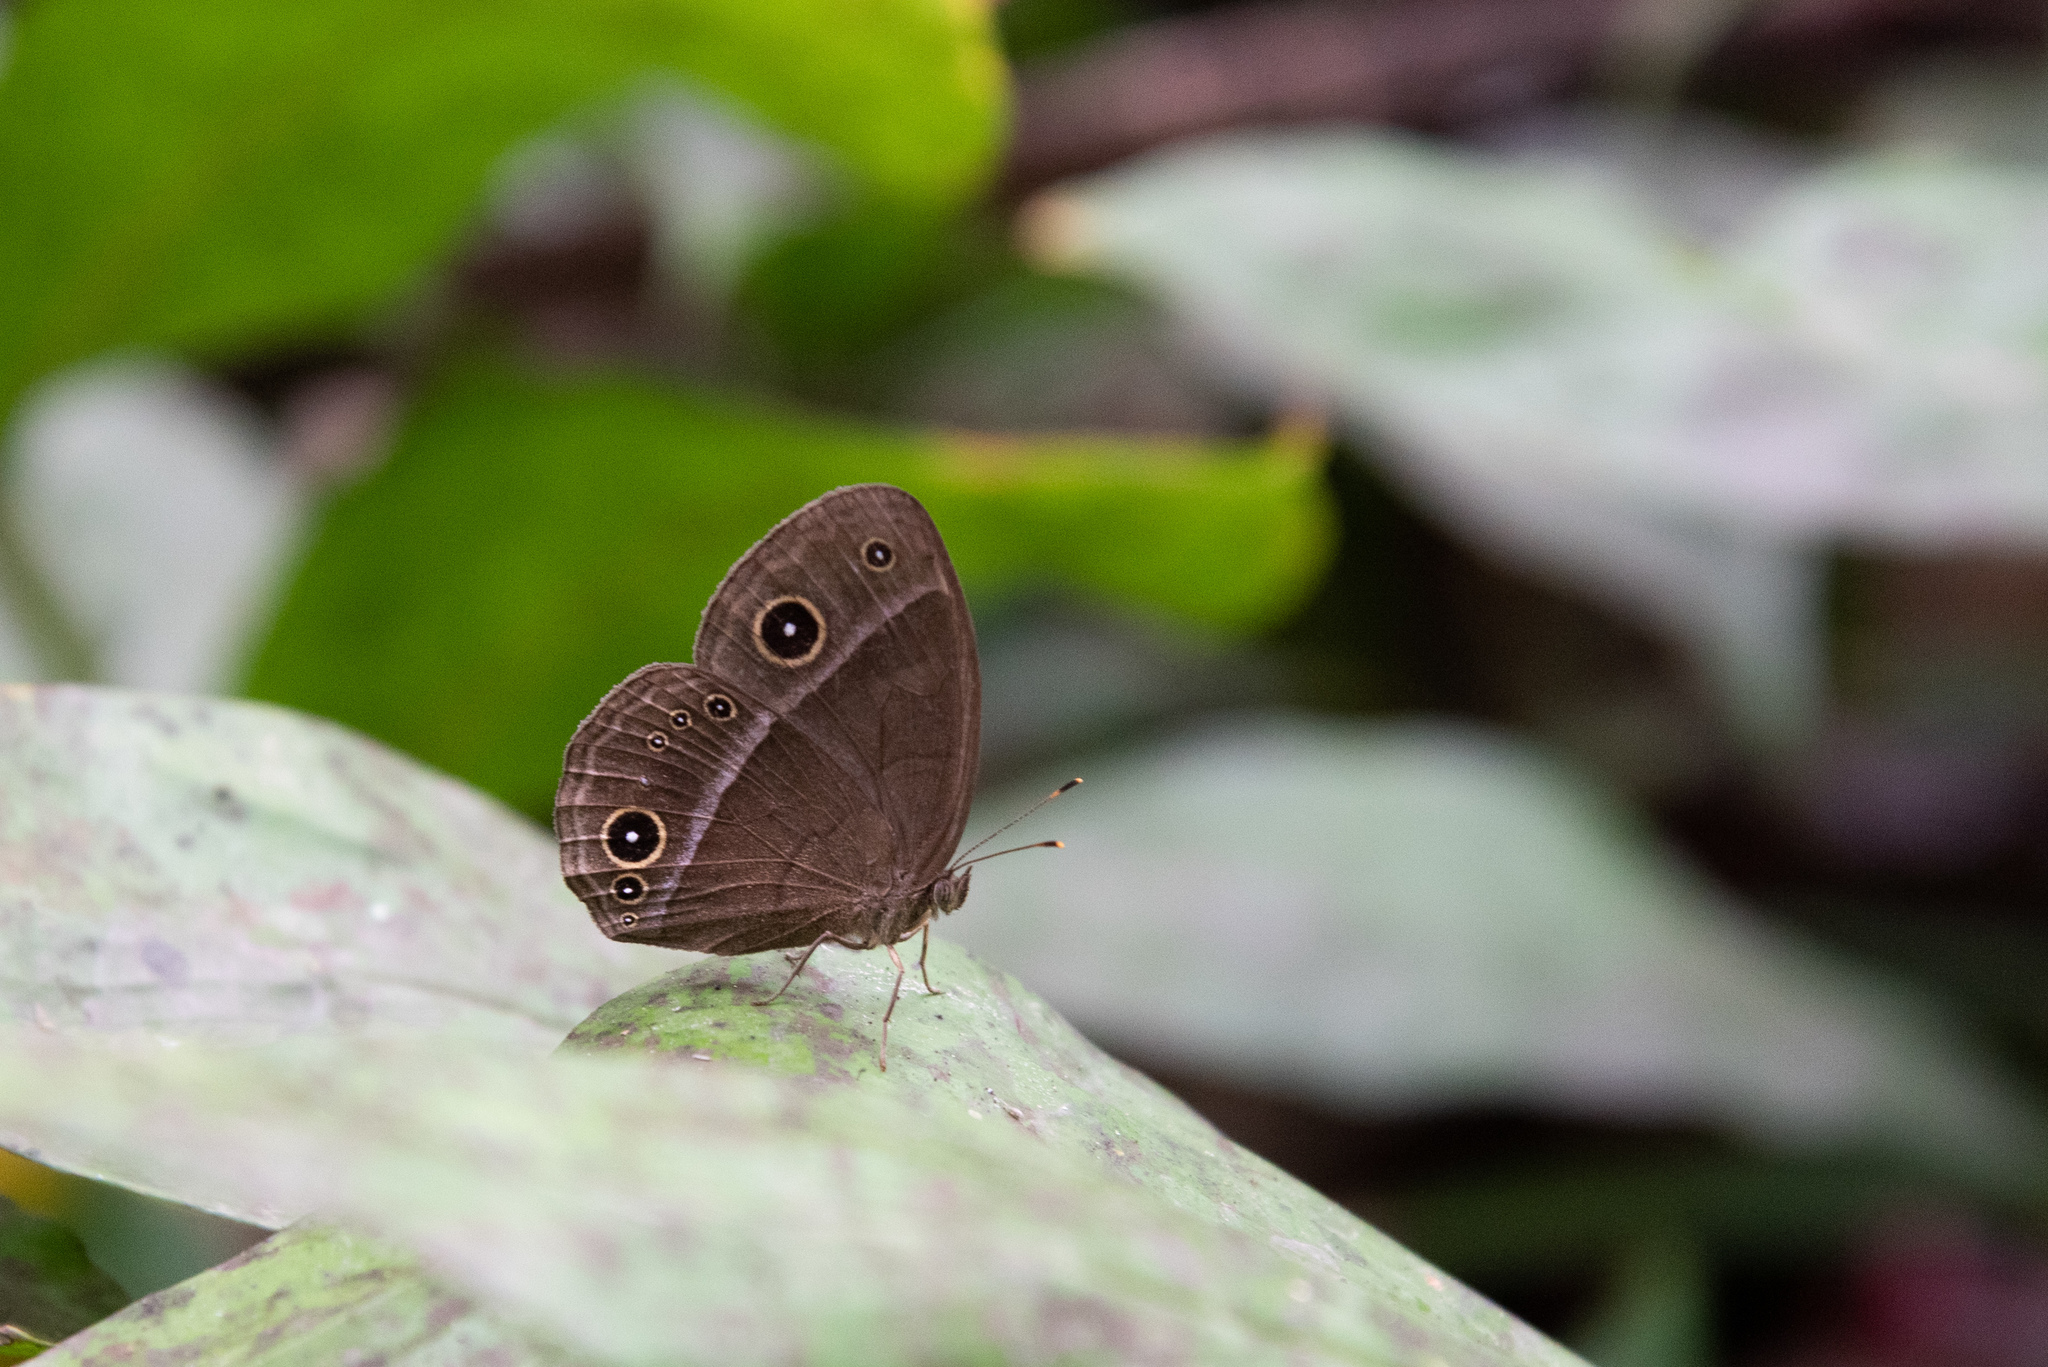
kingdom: Animalia
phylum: Arthropoda
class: Insecta
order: Lepidoptera
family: Nymphalidae
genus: Mycalesis
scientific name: Mycalesis francisca
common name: Lilacine bushbrown
